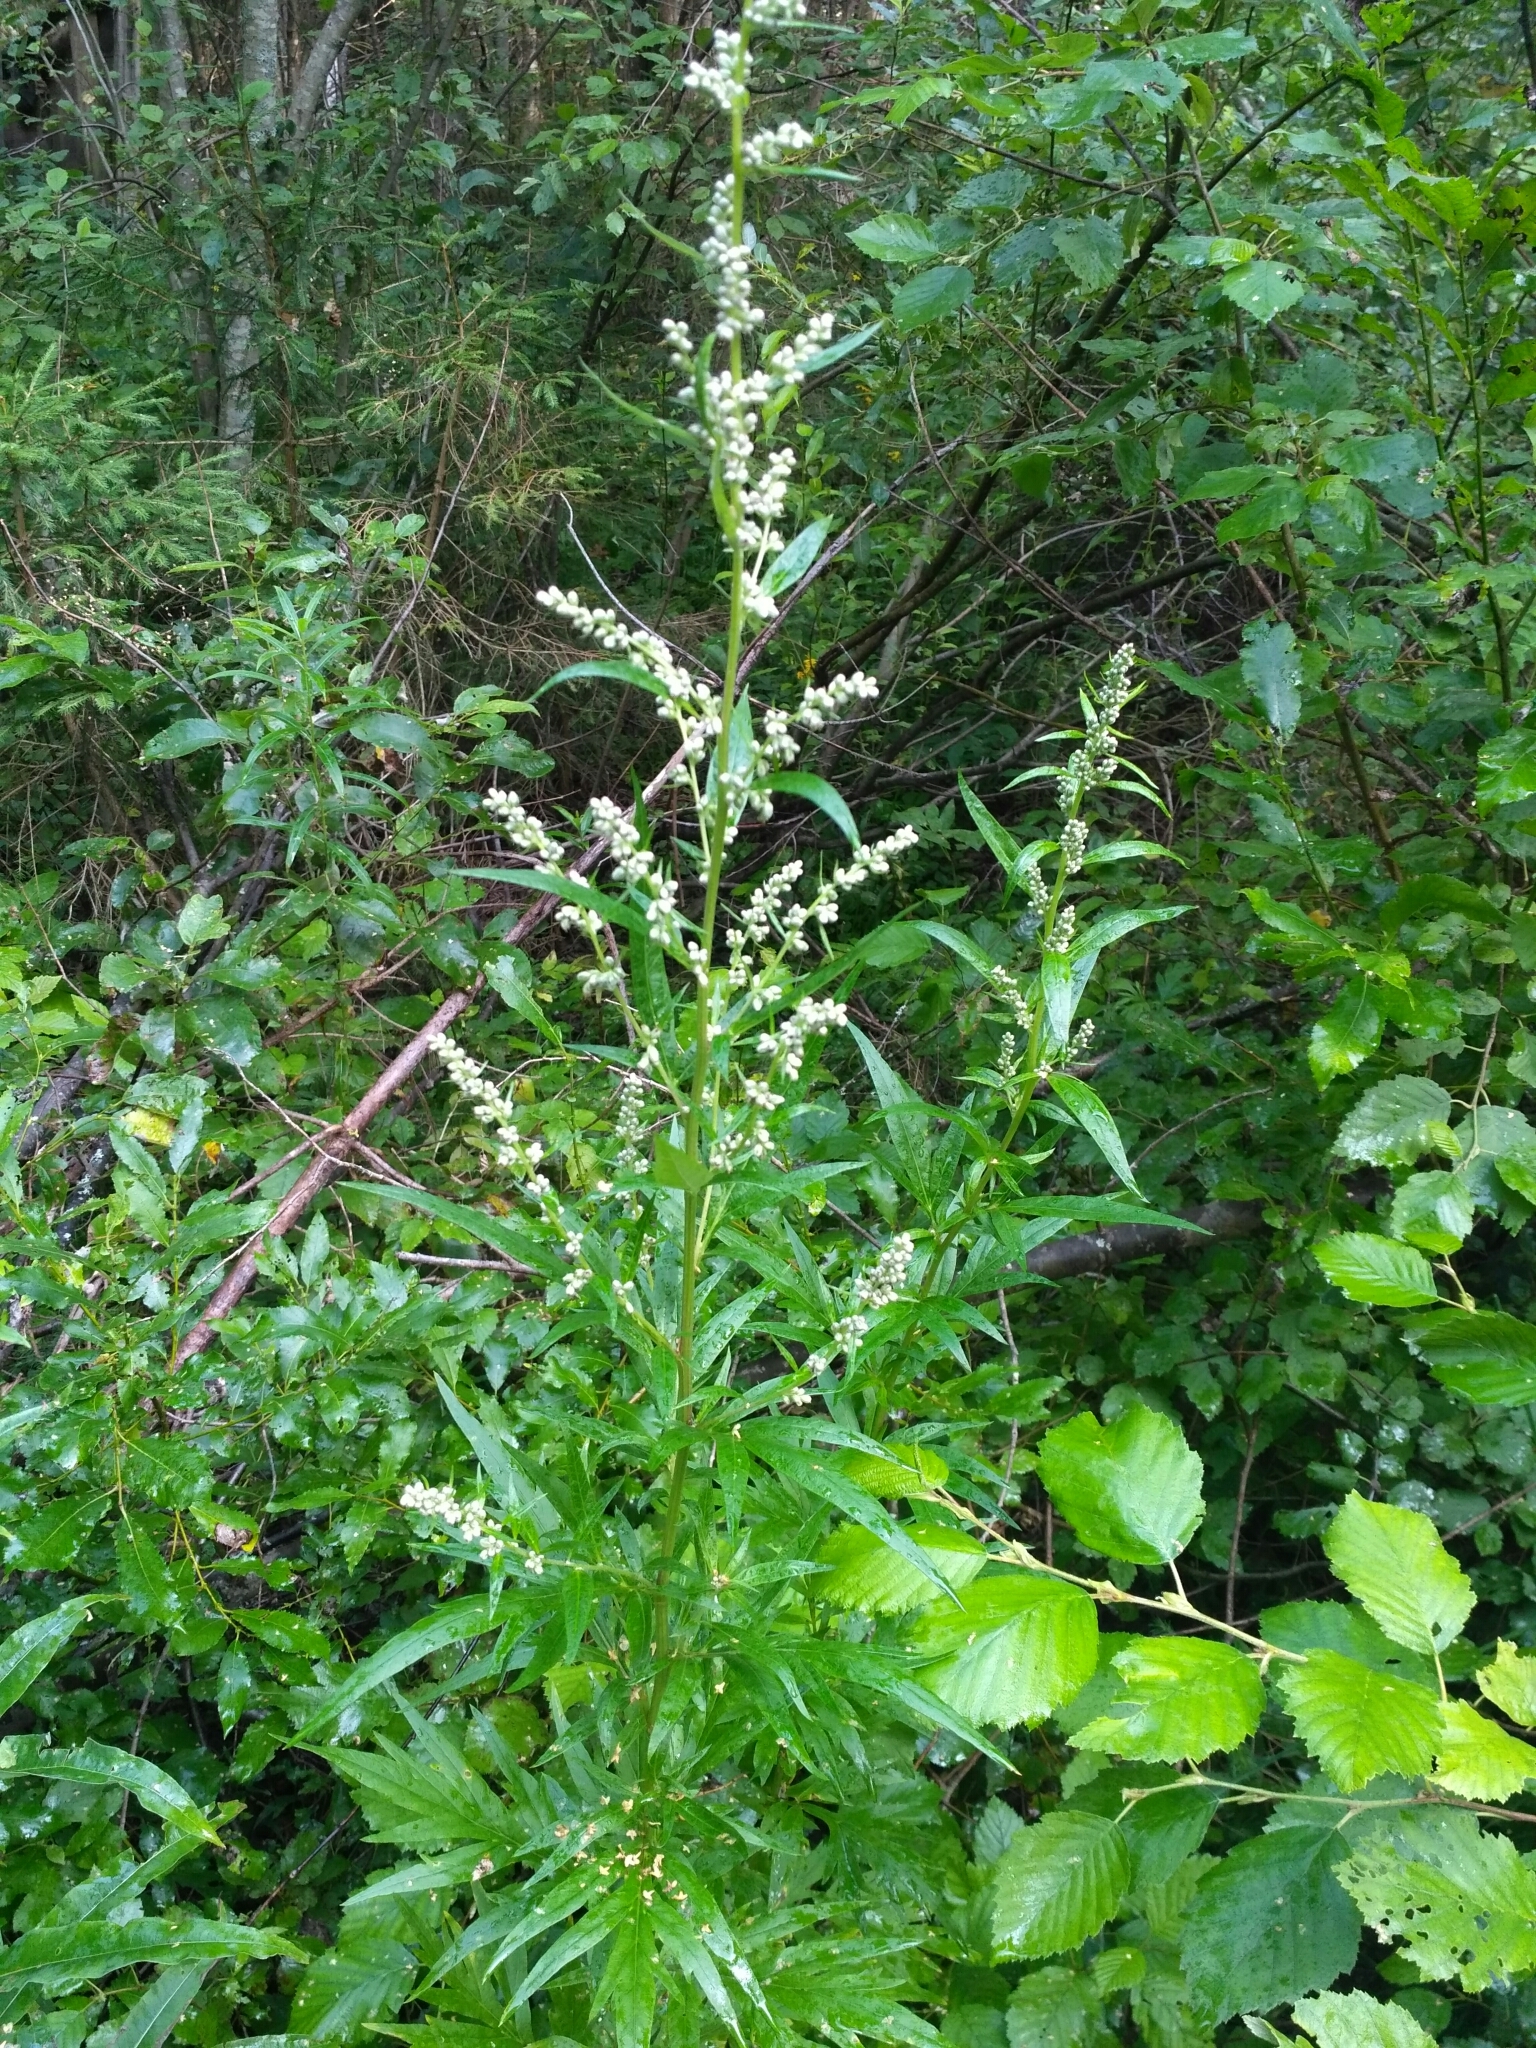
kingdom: Plantae
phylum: Tracheophyta
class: Magnoliopsida
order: Asterales
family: Asteraceae
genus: Artemisia
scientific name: Artemisia vulgaris
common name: Mugwort
